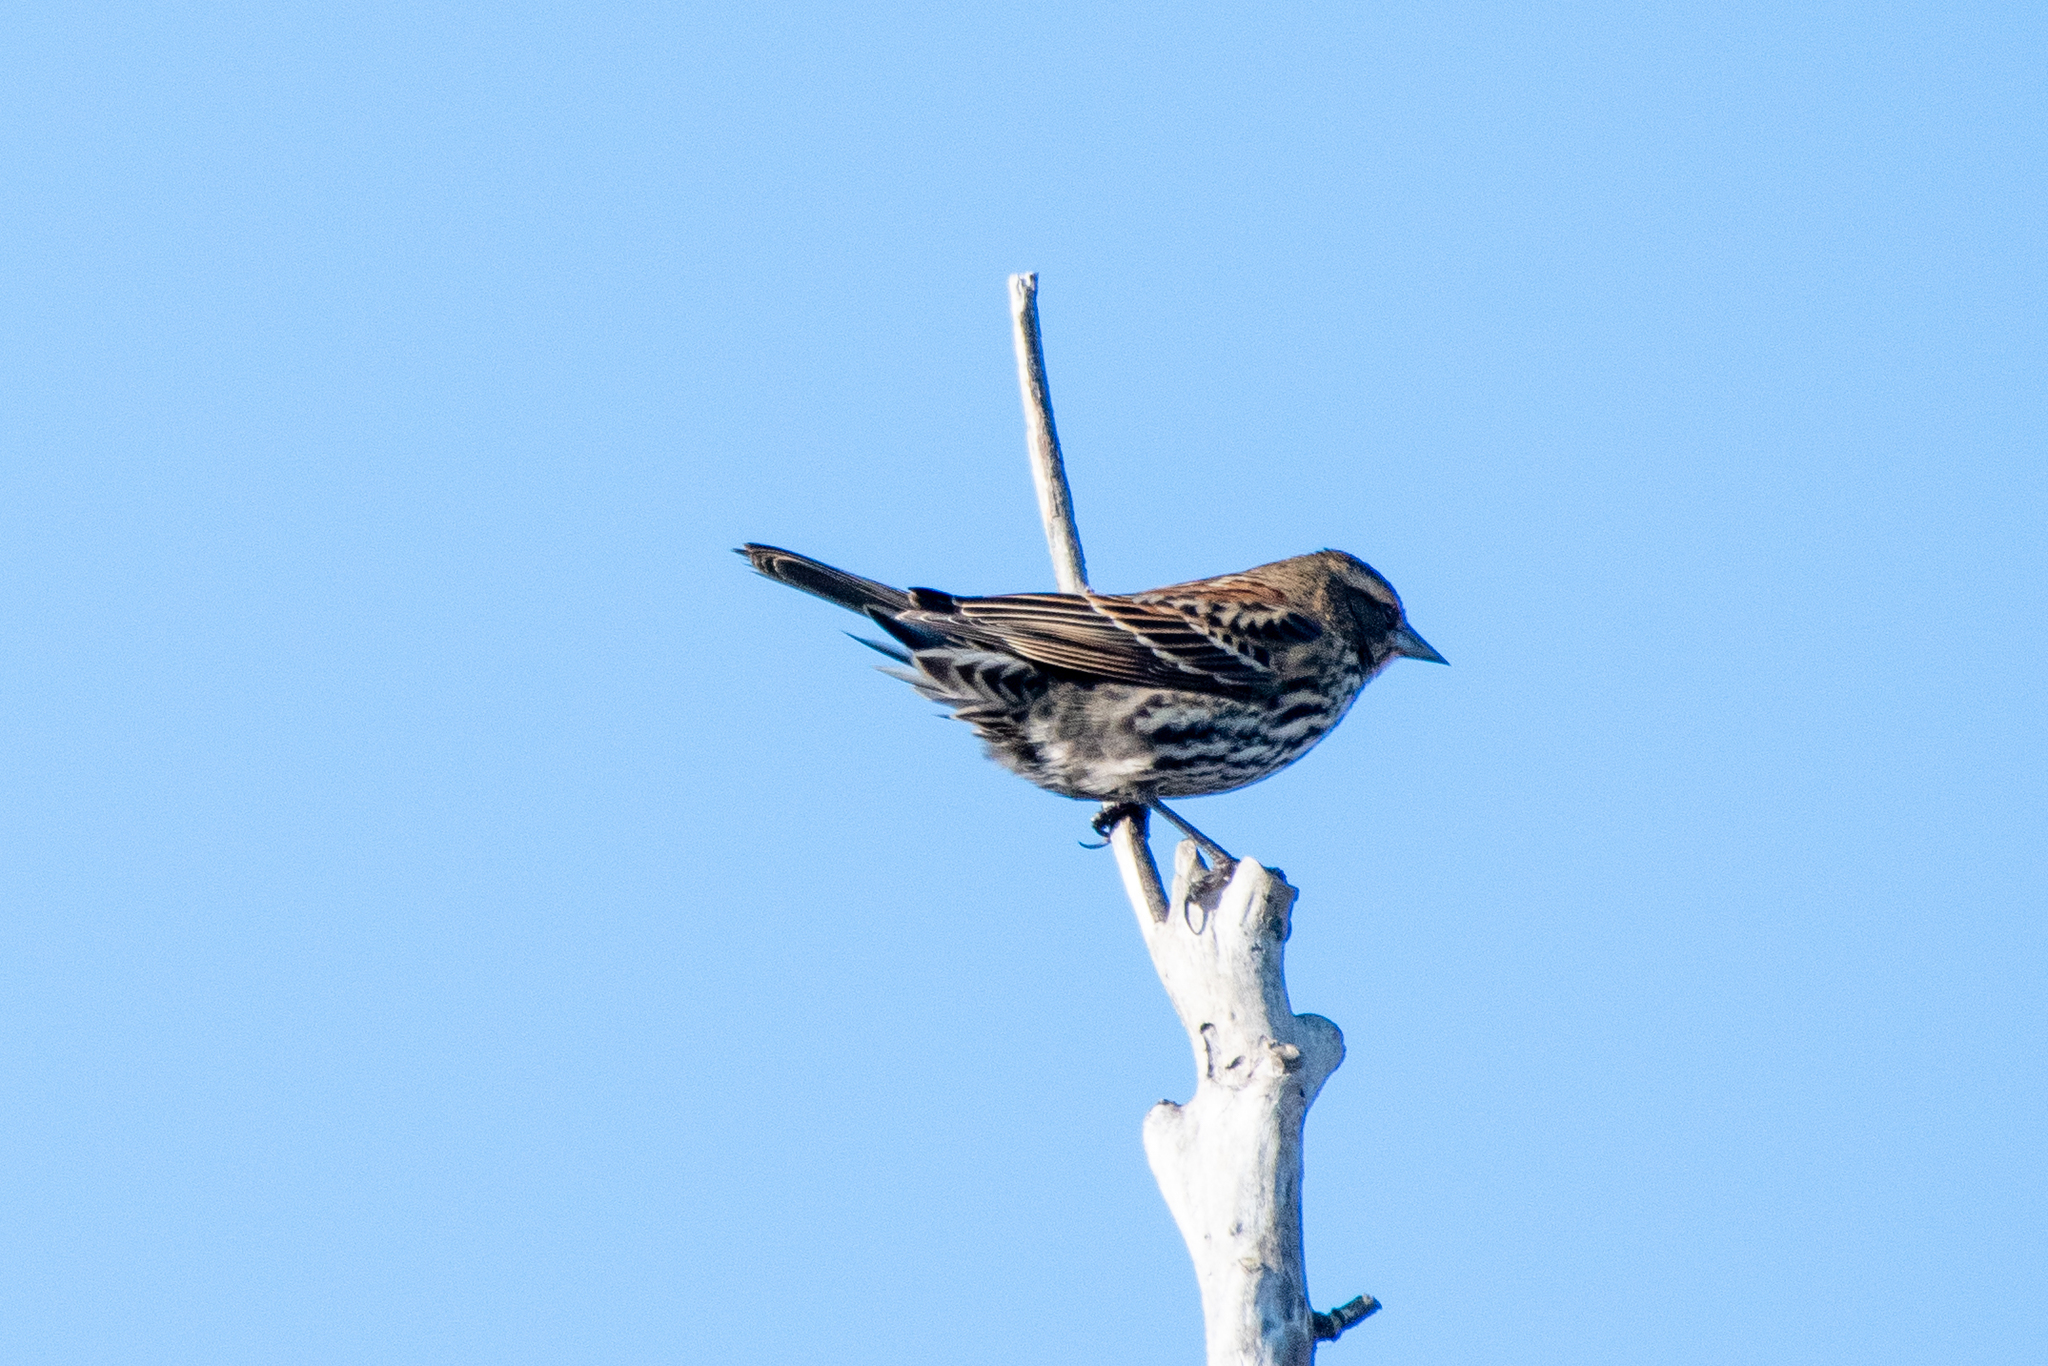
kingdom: Animalia
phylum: Chordata
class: Aves
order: Passeriformes
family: Icteridae
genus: Agelaius
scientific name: Agelaius phoeniceus
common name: Red-winged blackbird
